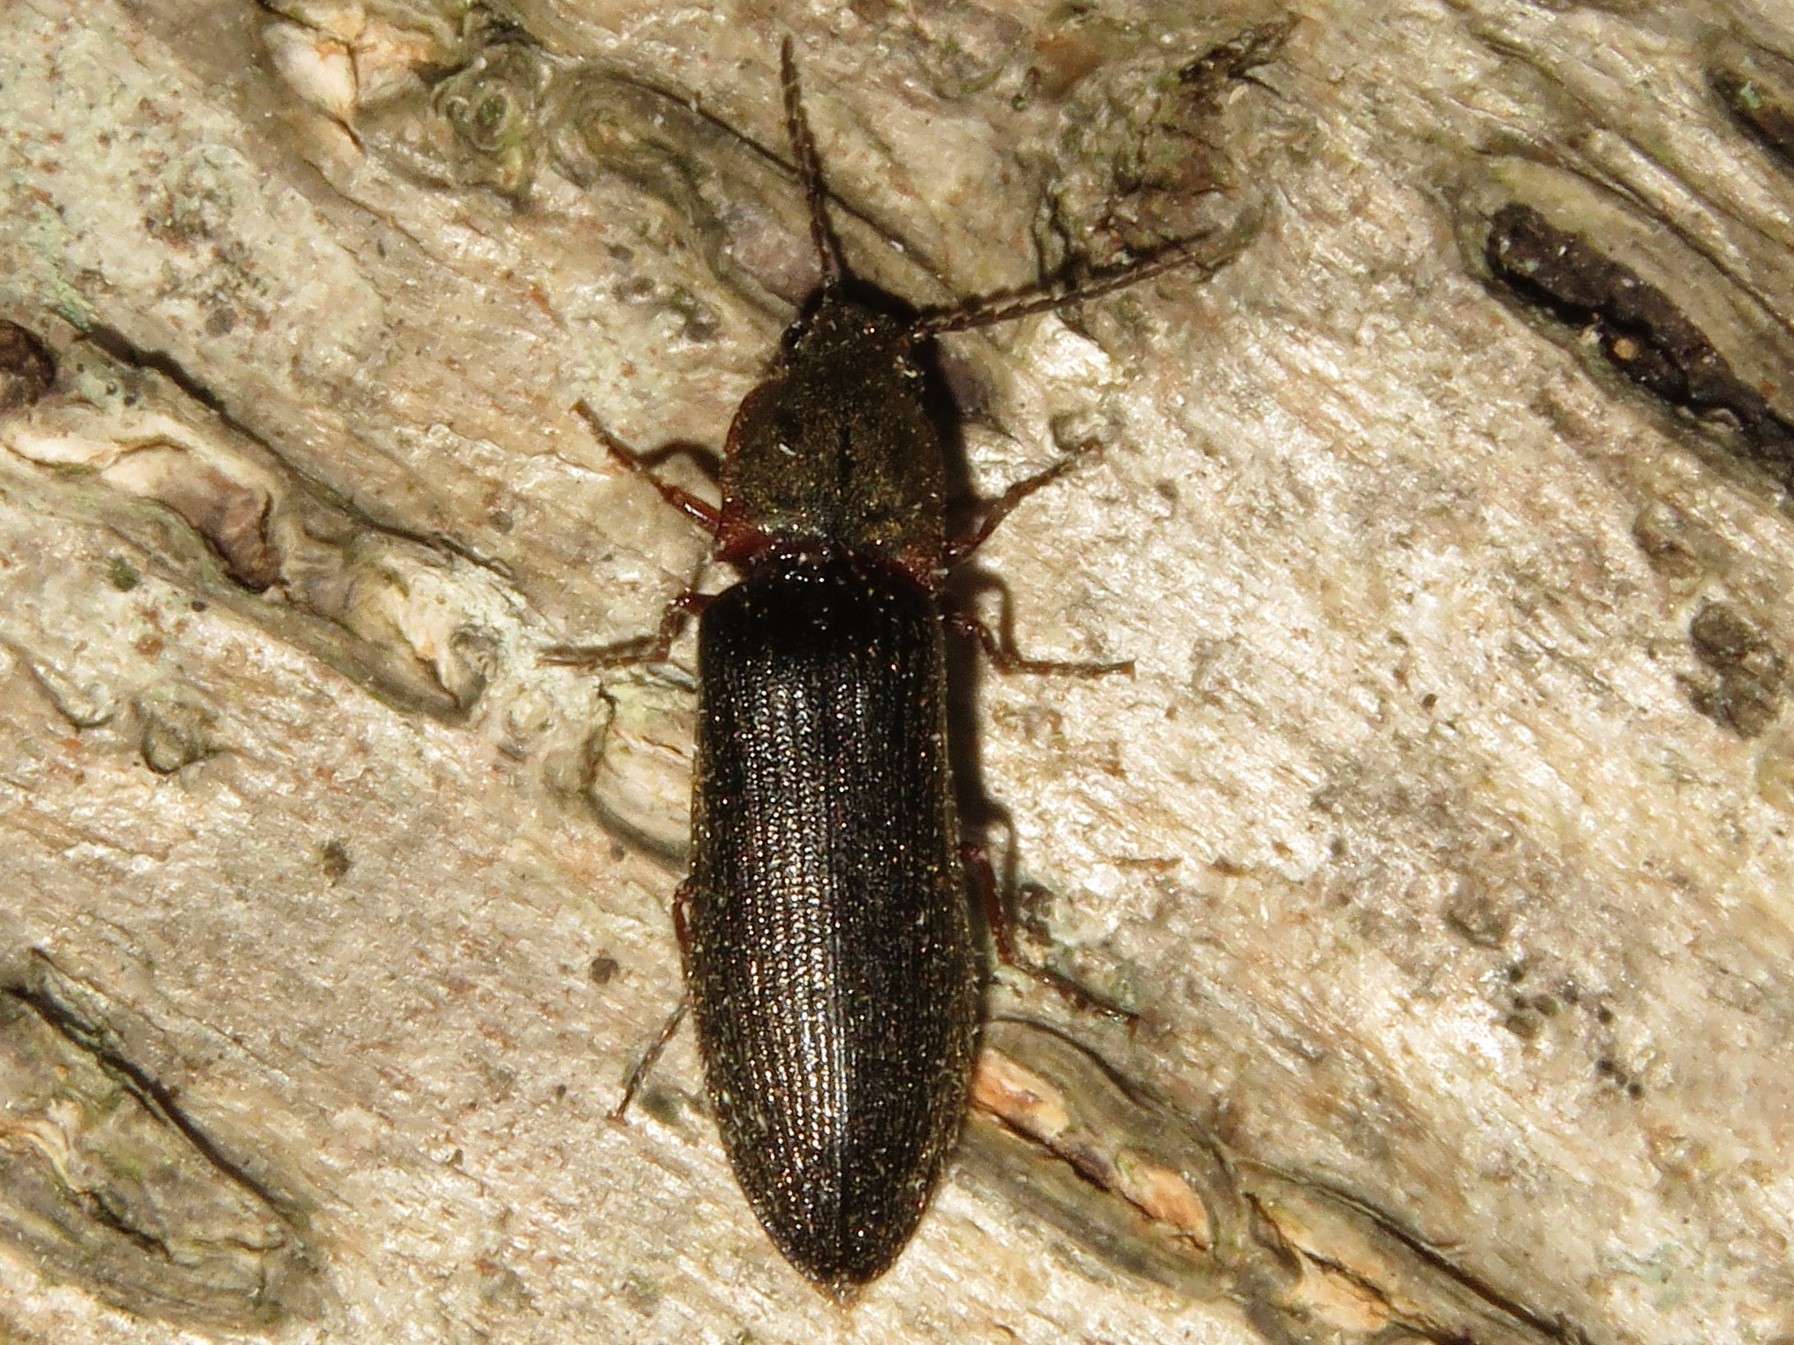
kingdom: Animalia
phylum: Arthropoda
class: Insecta
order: Coleoptera
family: Elateridae
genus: Athous
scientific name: Athous productus
